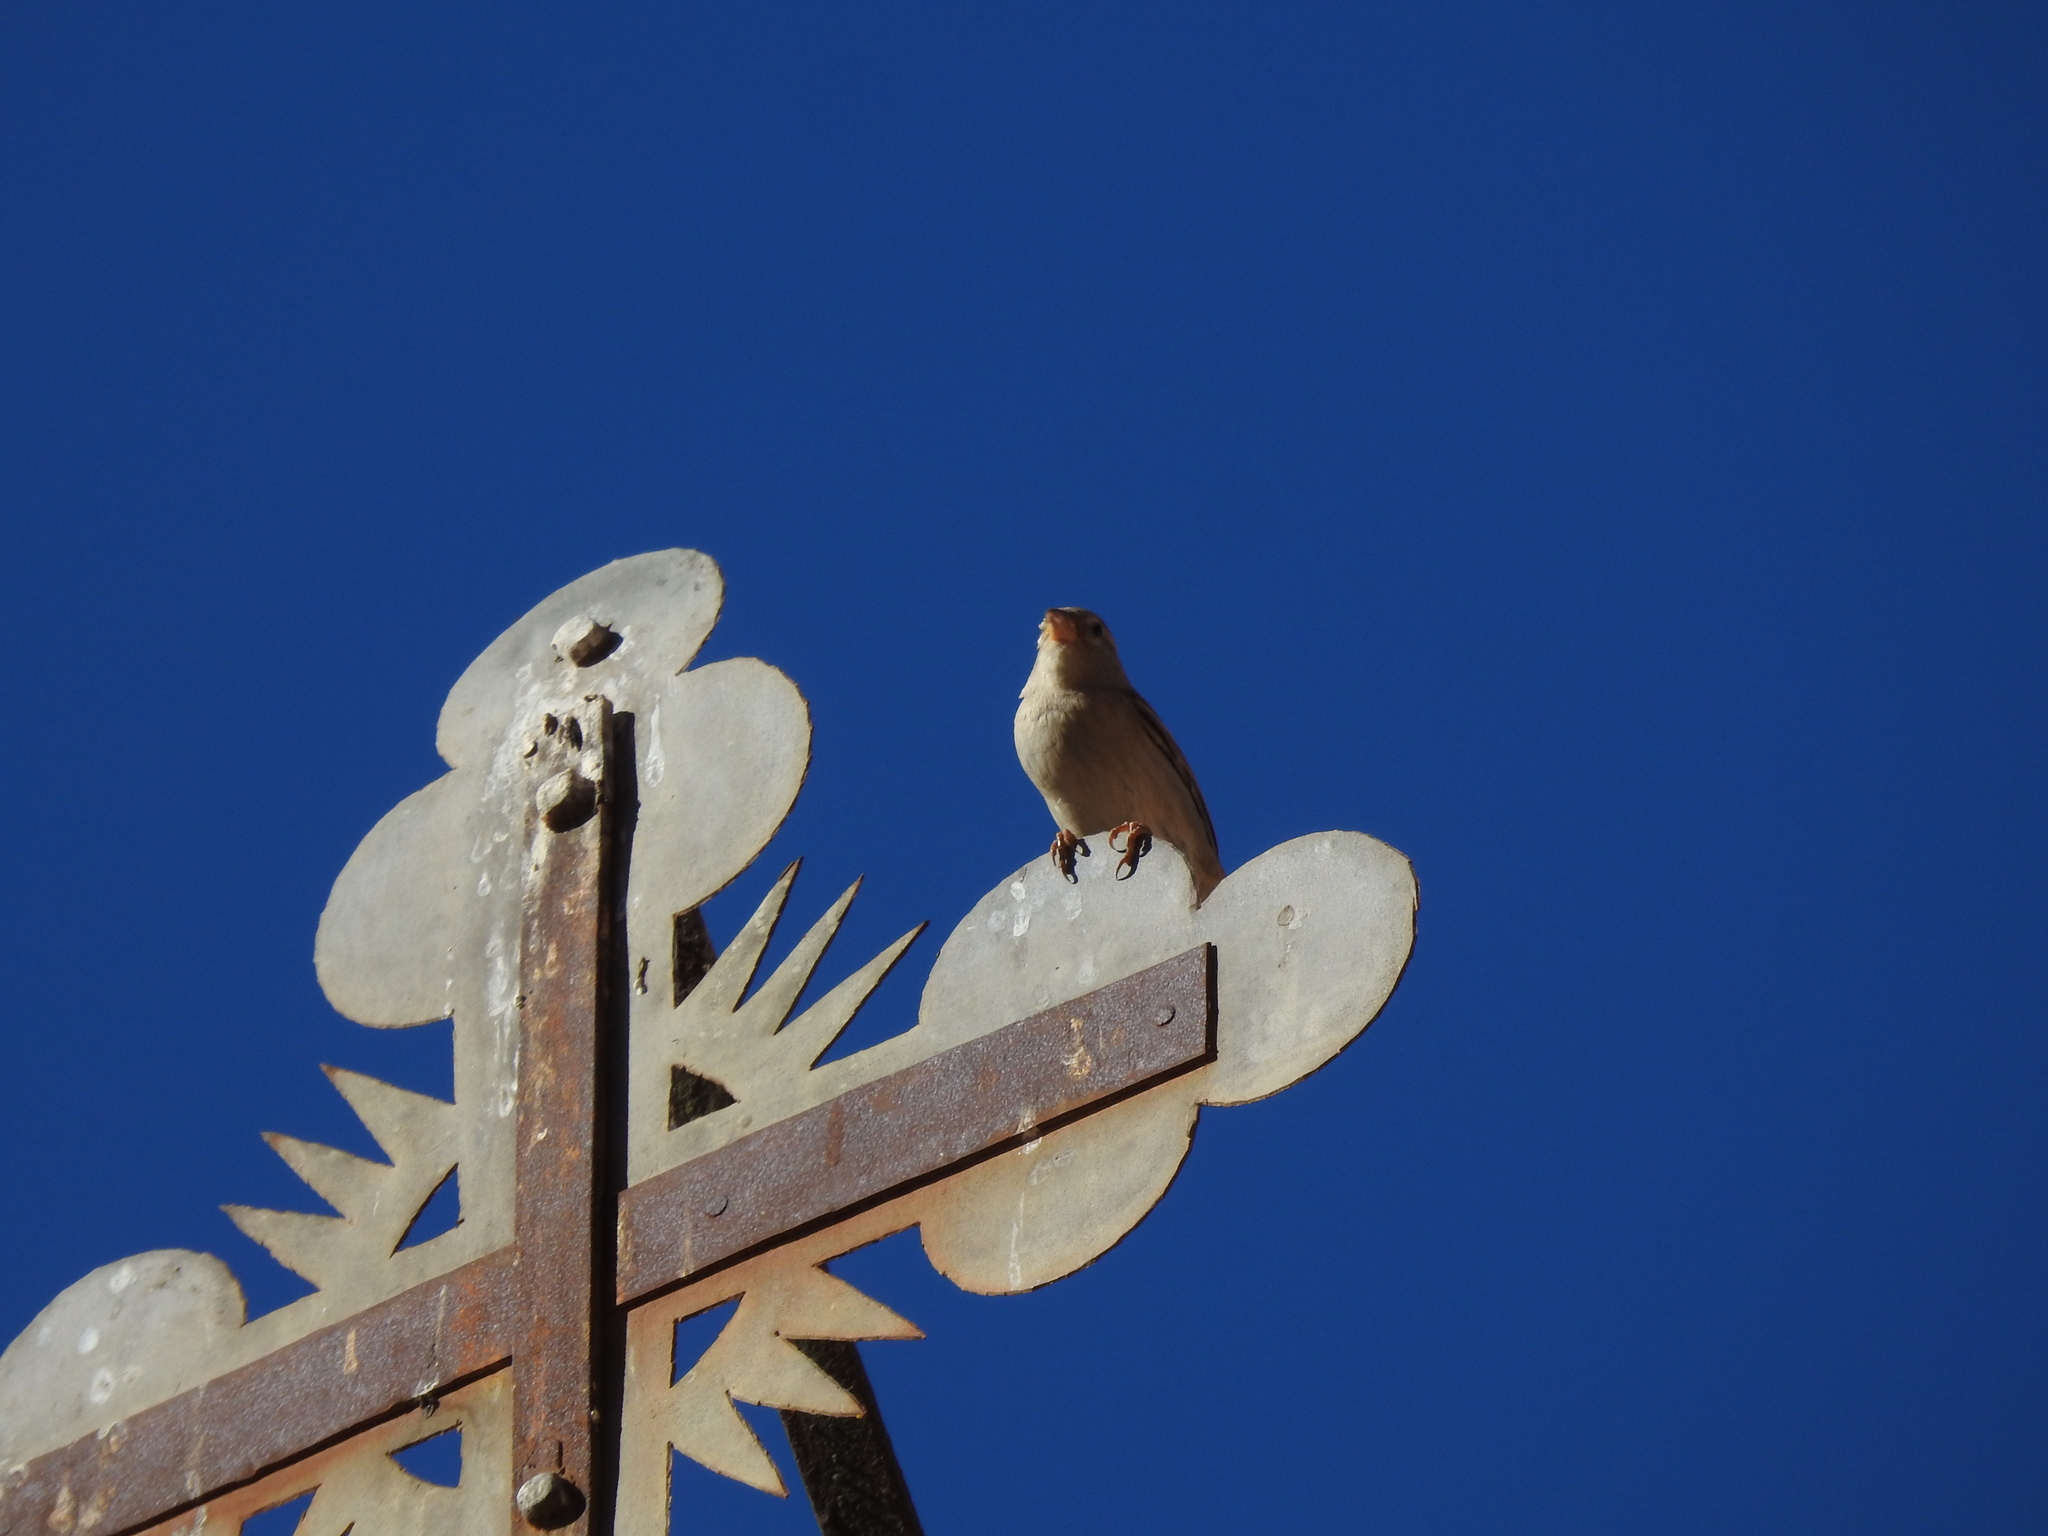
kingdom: Animalia
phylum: Chordata
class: Aves
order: Passeriformes
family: Passeridae
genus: Passer
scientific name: Passer domesticus
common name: House sparrow
